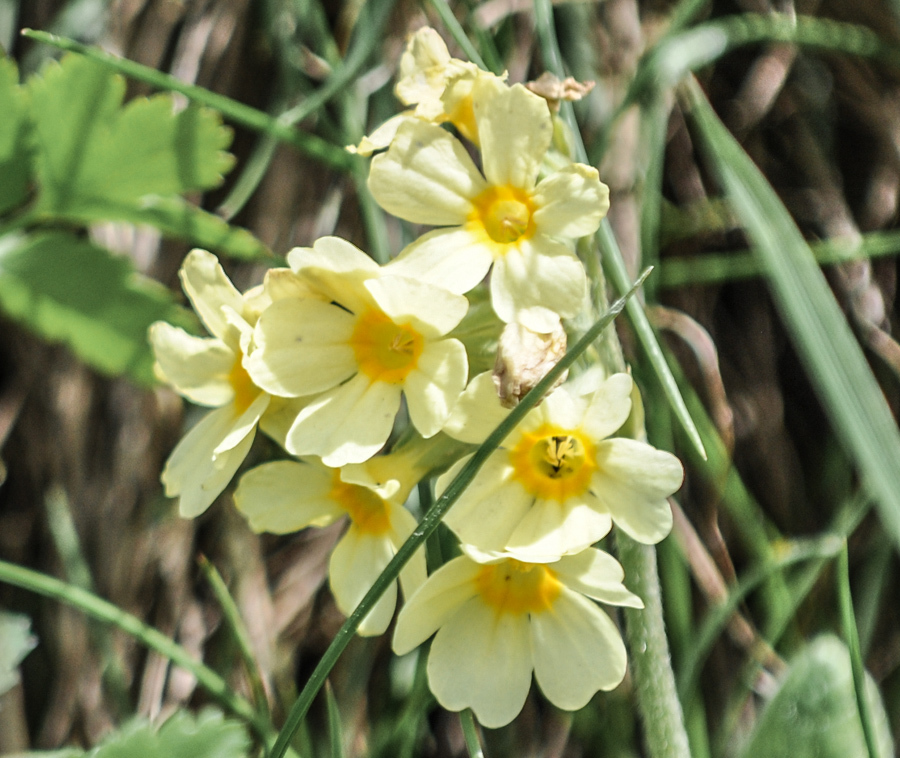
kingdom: Plantae
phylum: Tracheophyta
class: Magnoliopsida
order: Ericales
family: Primulaceae
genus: Primula
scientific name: Primula elatior
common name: Oxlip
